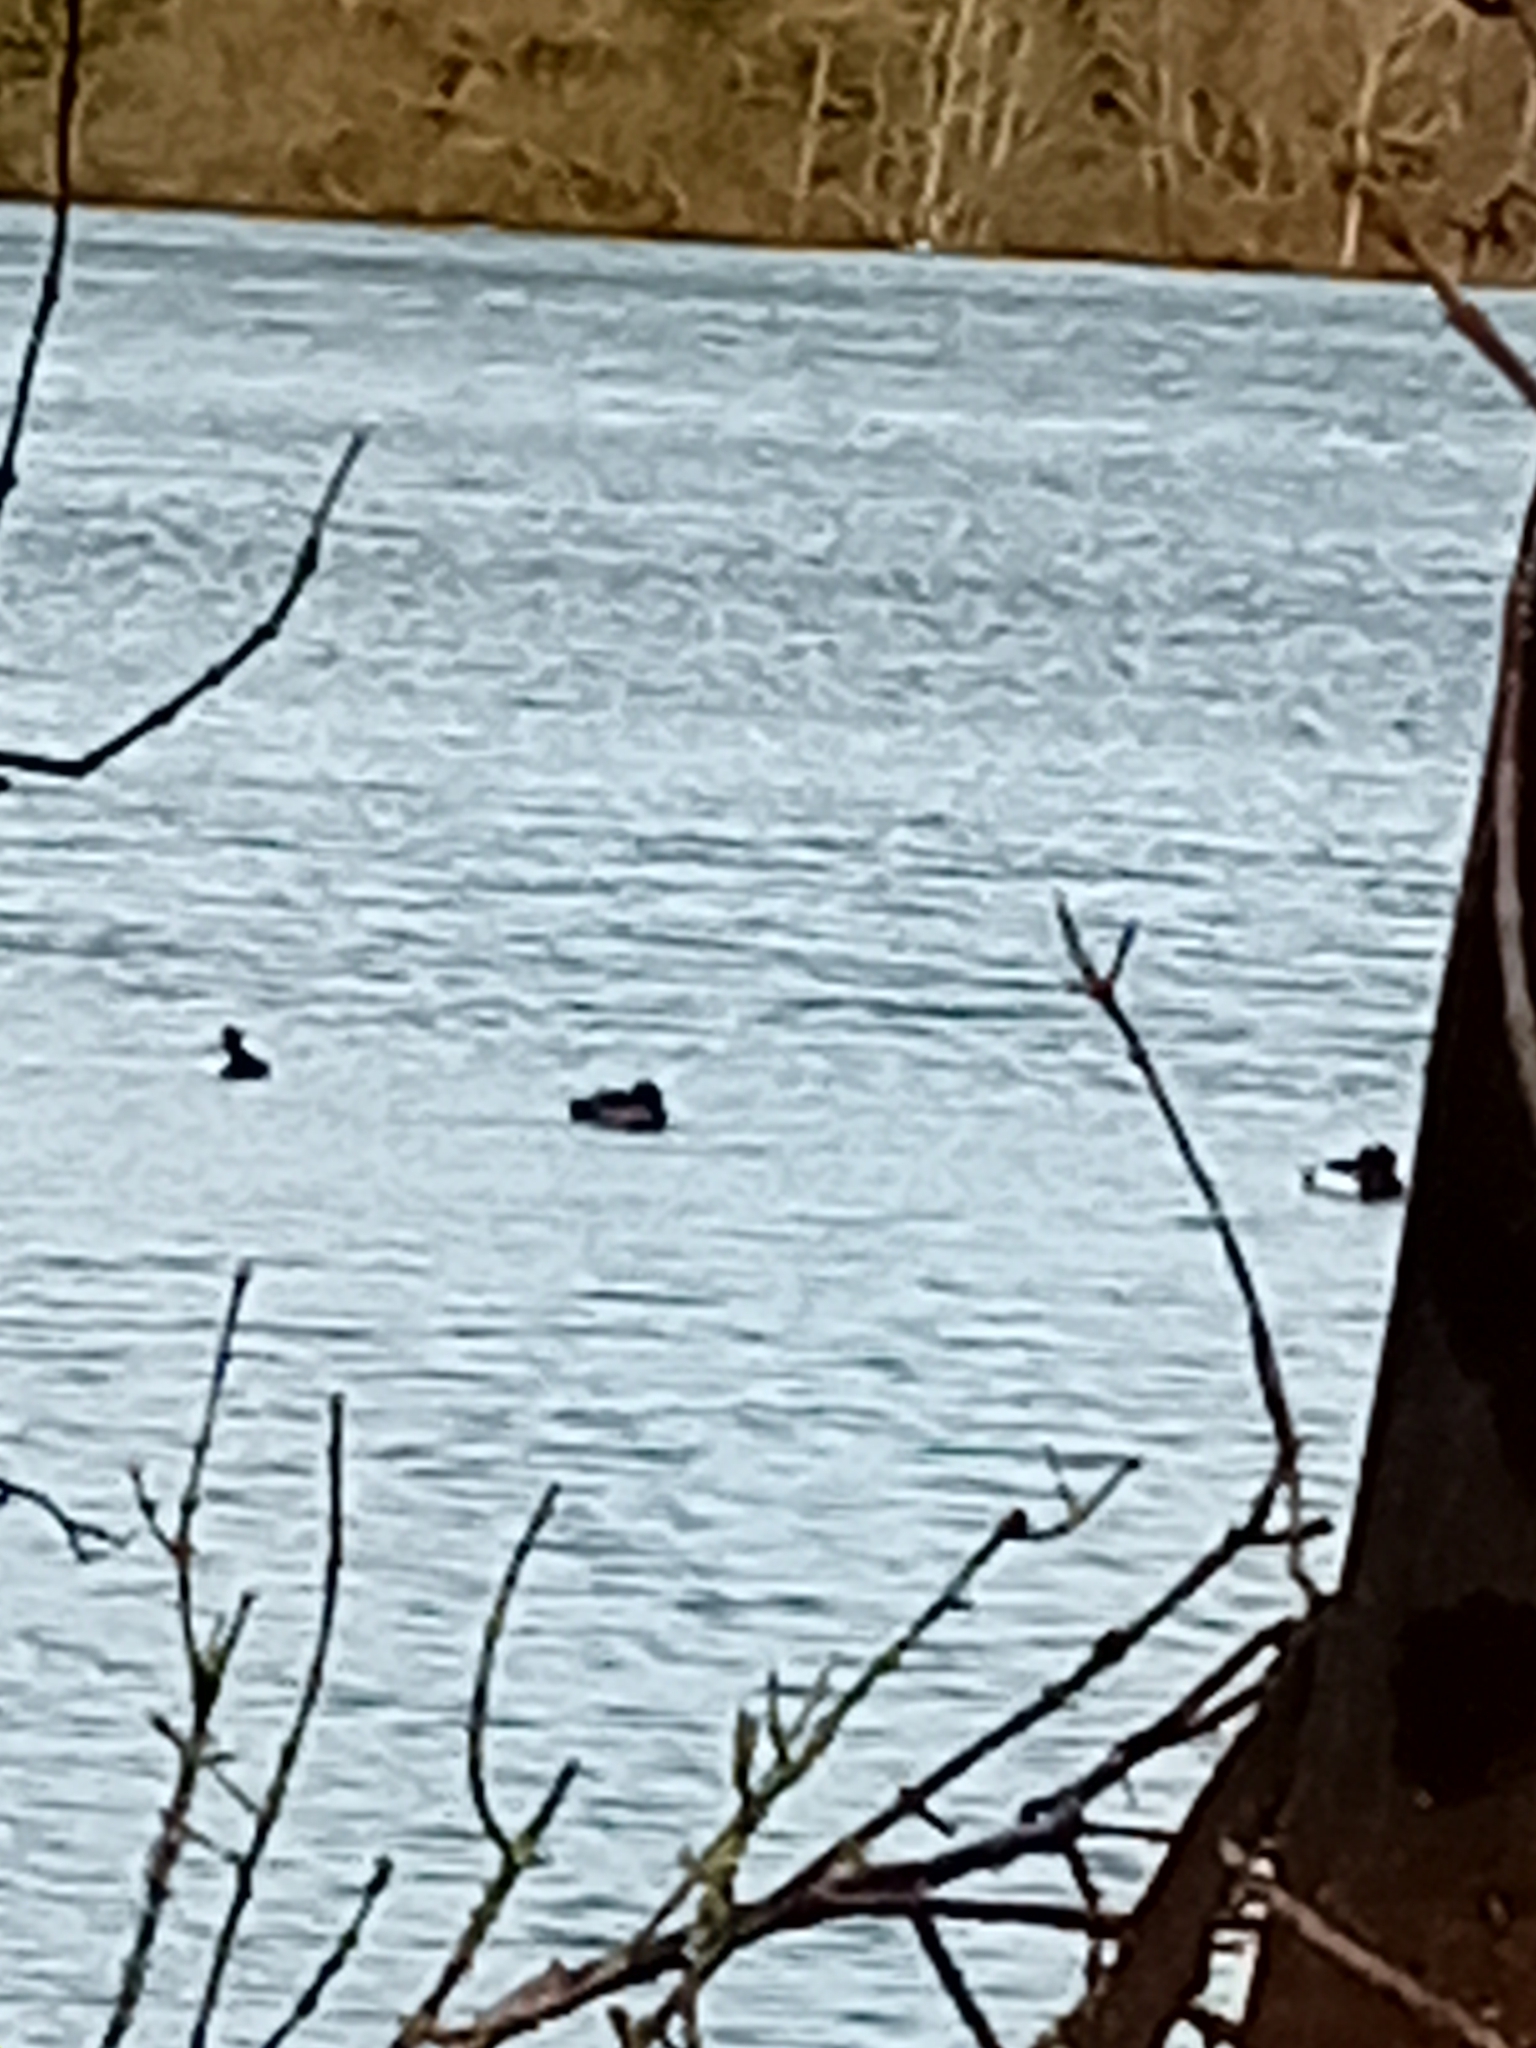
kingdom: Animalia
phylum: Chordata
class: Aves
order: Anseriformes
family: Anatidae
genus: Aythya
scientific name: Aythya fuligula
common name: Tufted duck
